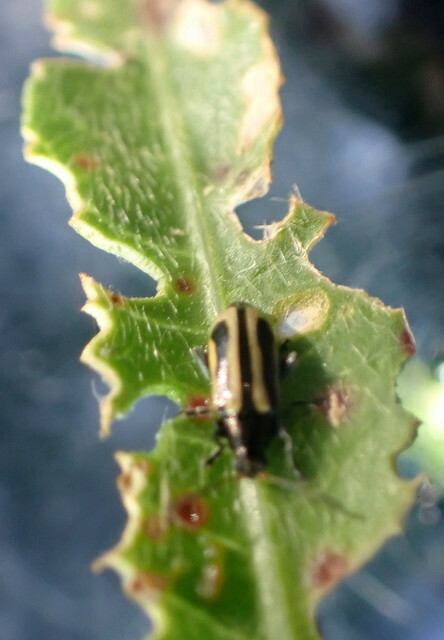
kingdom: Animalia
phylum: Arthropoda
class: Insecta
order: Coleoptera
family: Chrysomelidae
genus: Agasicles
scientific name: Agasicles hygrophila
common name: Alligatorweed flea beetle
